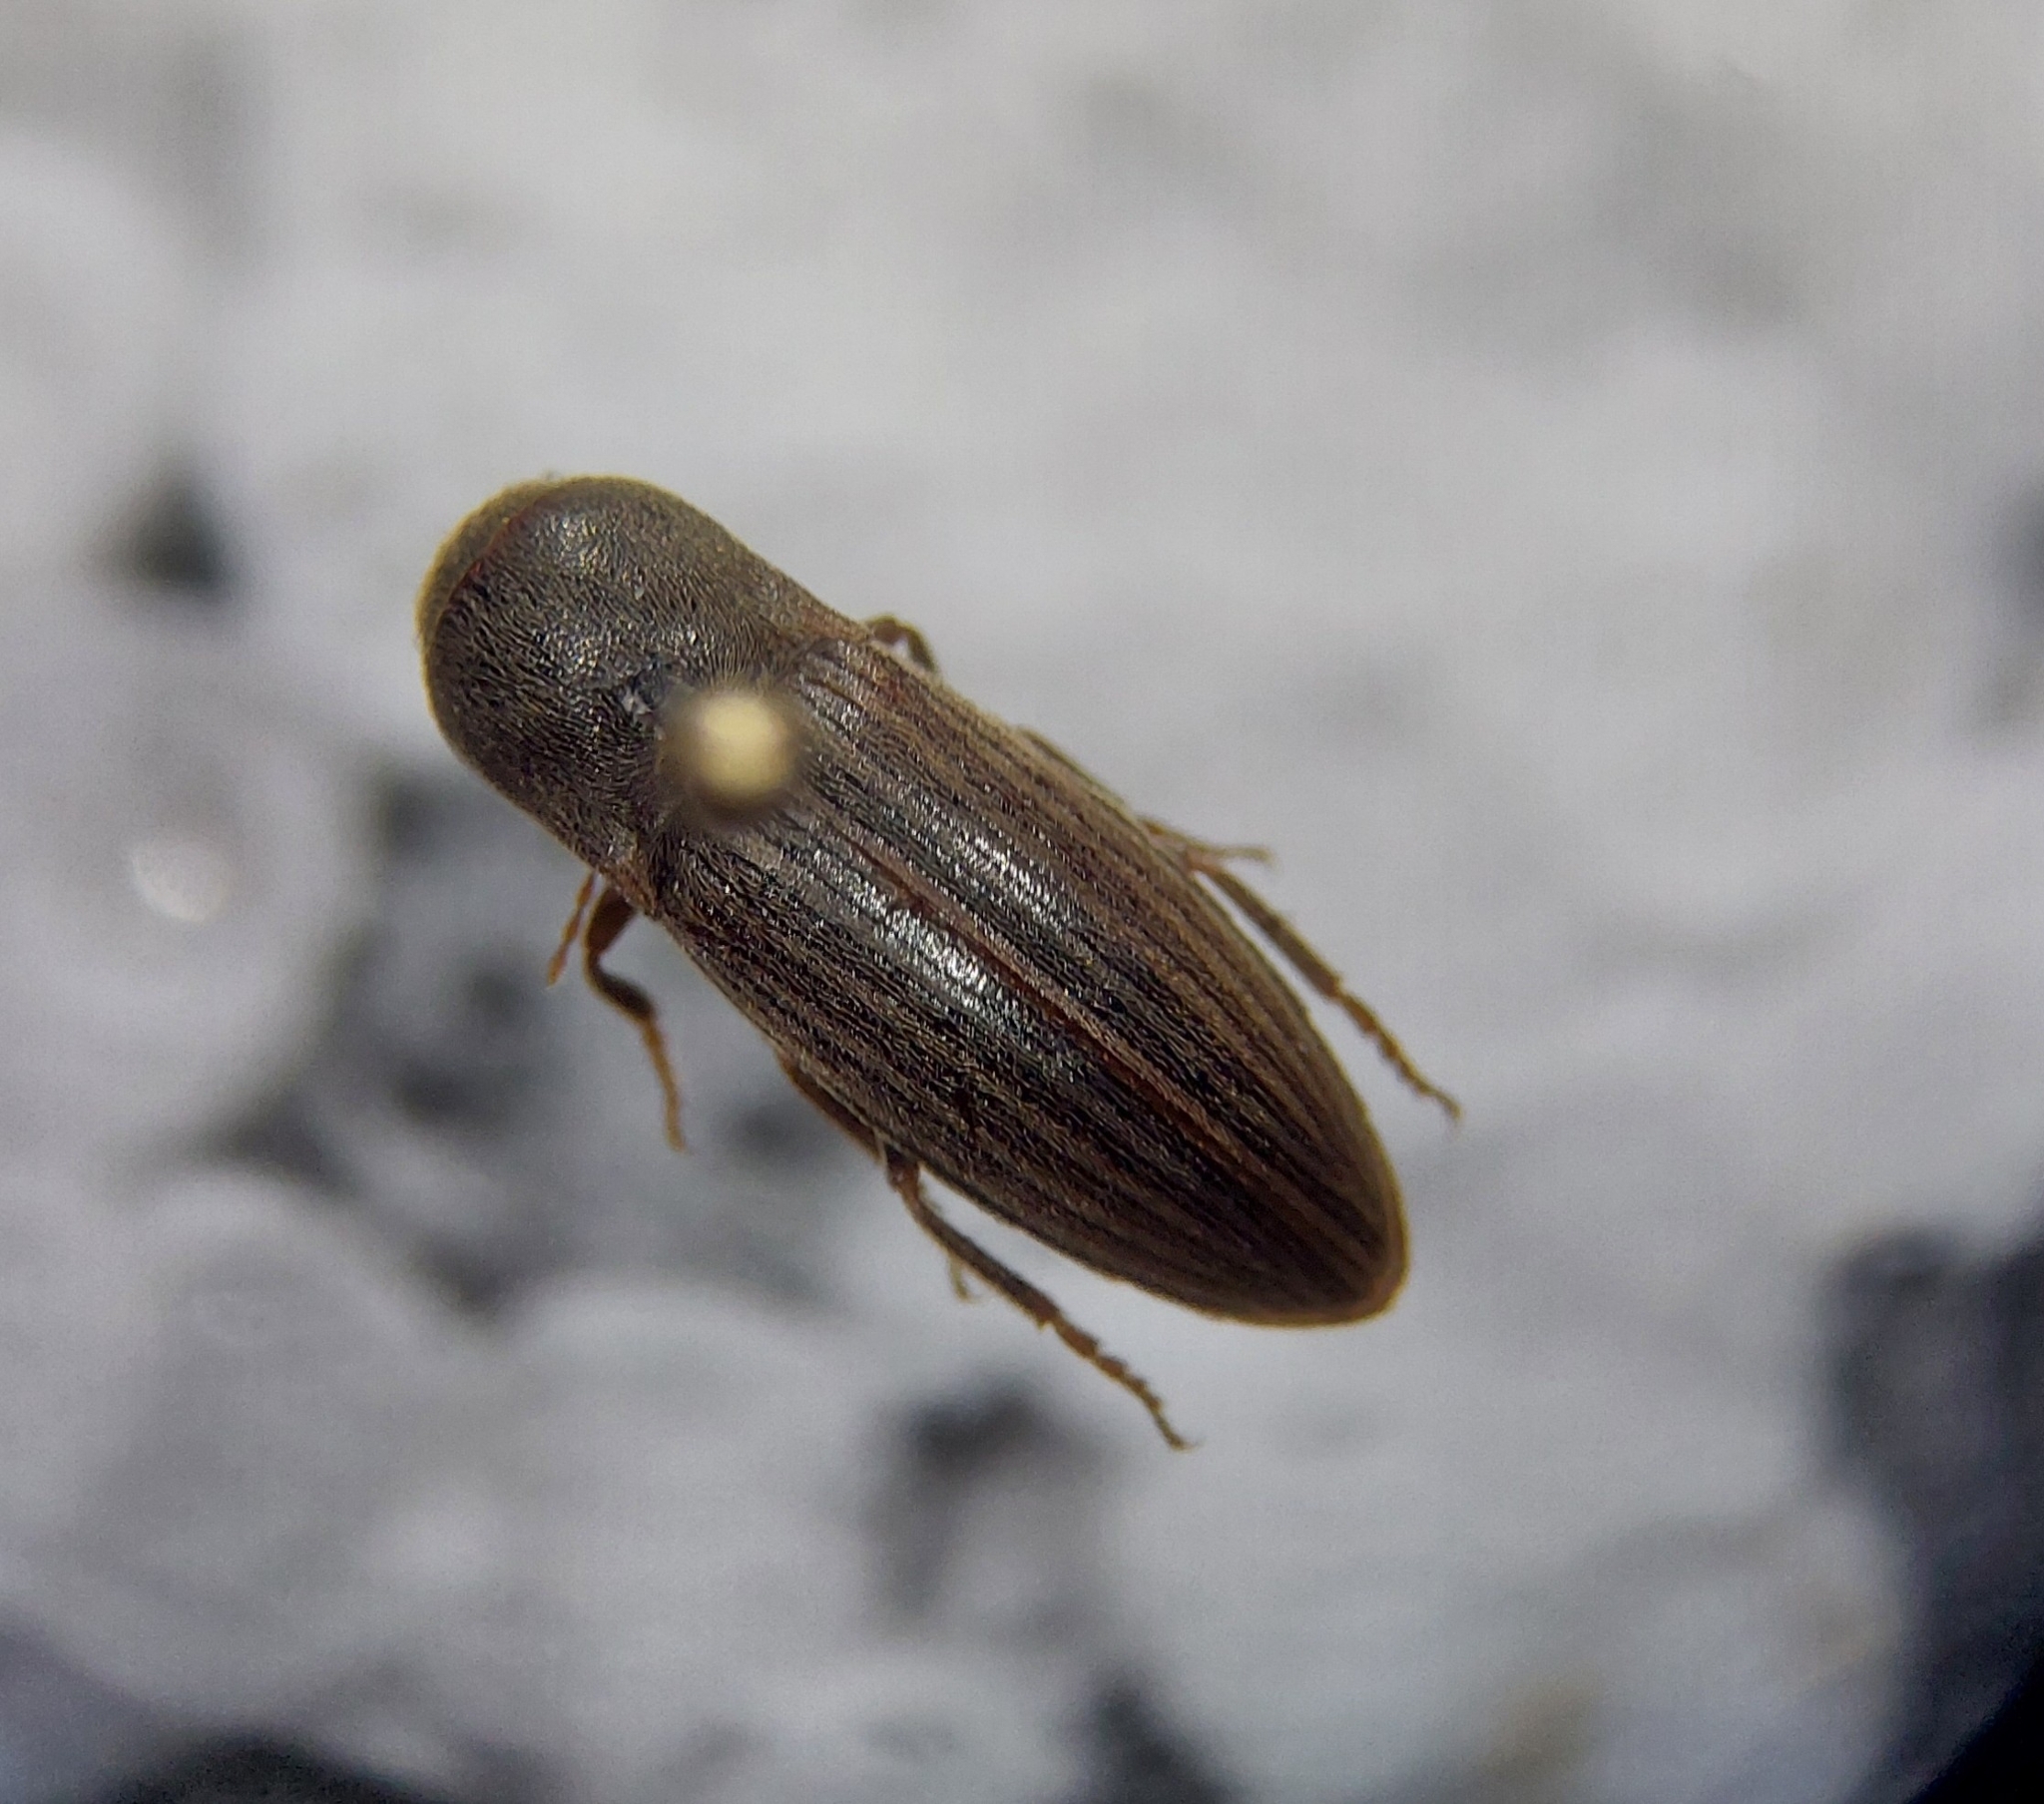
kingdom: Animalia
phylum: Arthropoda
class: Insecta
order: Coleoptera
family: Elateridae
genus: Agriotes
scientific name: Agriotes lineatus
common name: Lined click beetle
